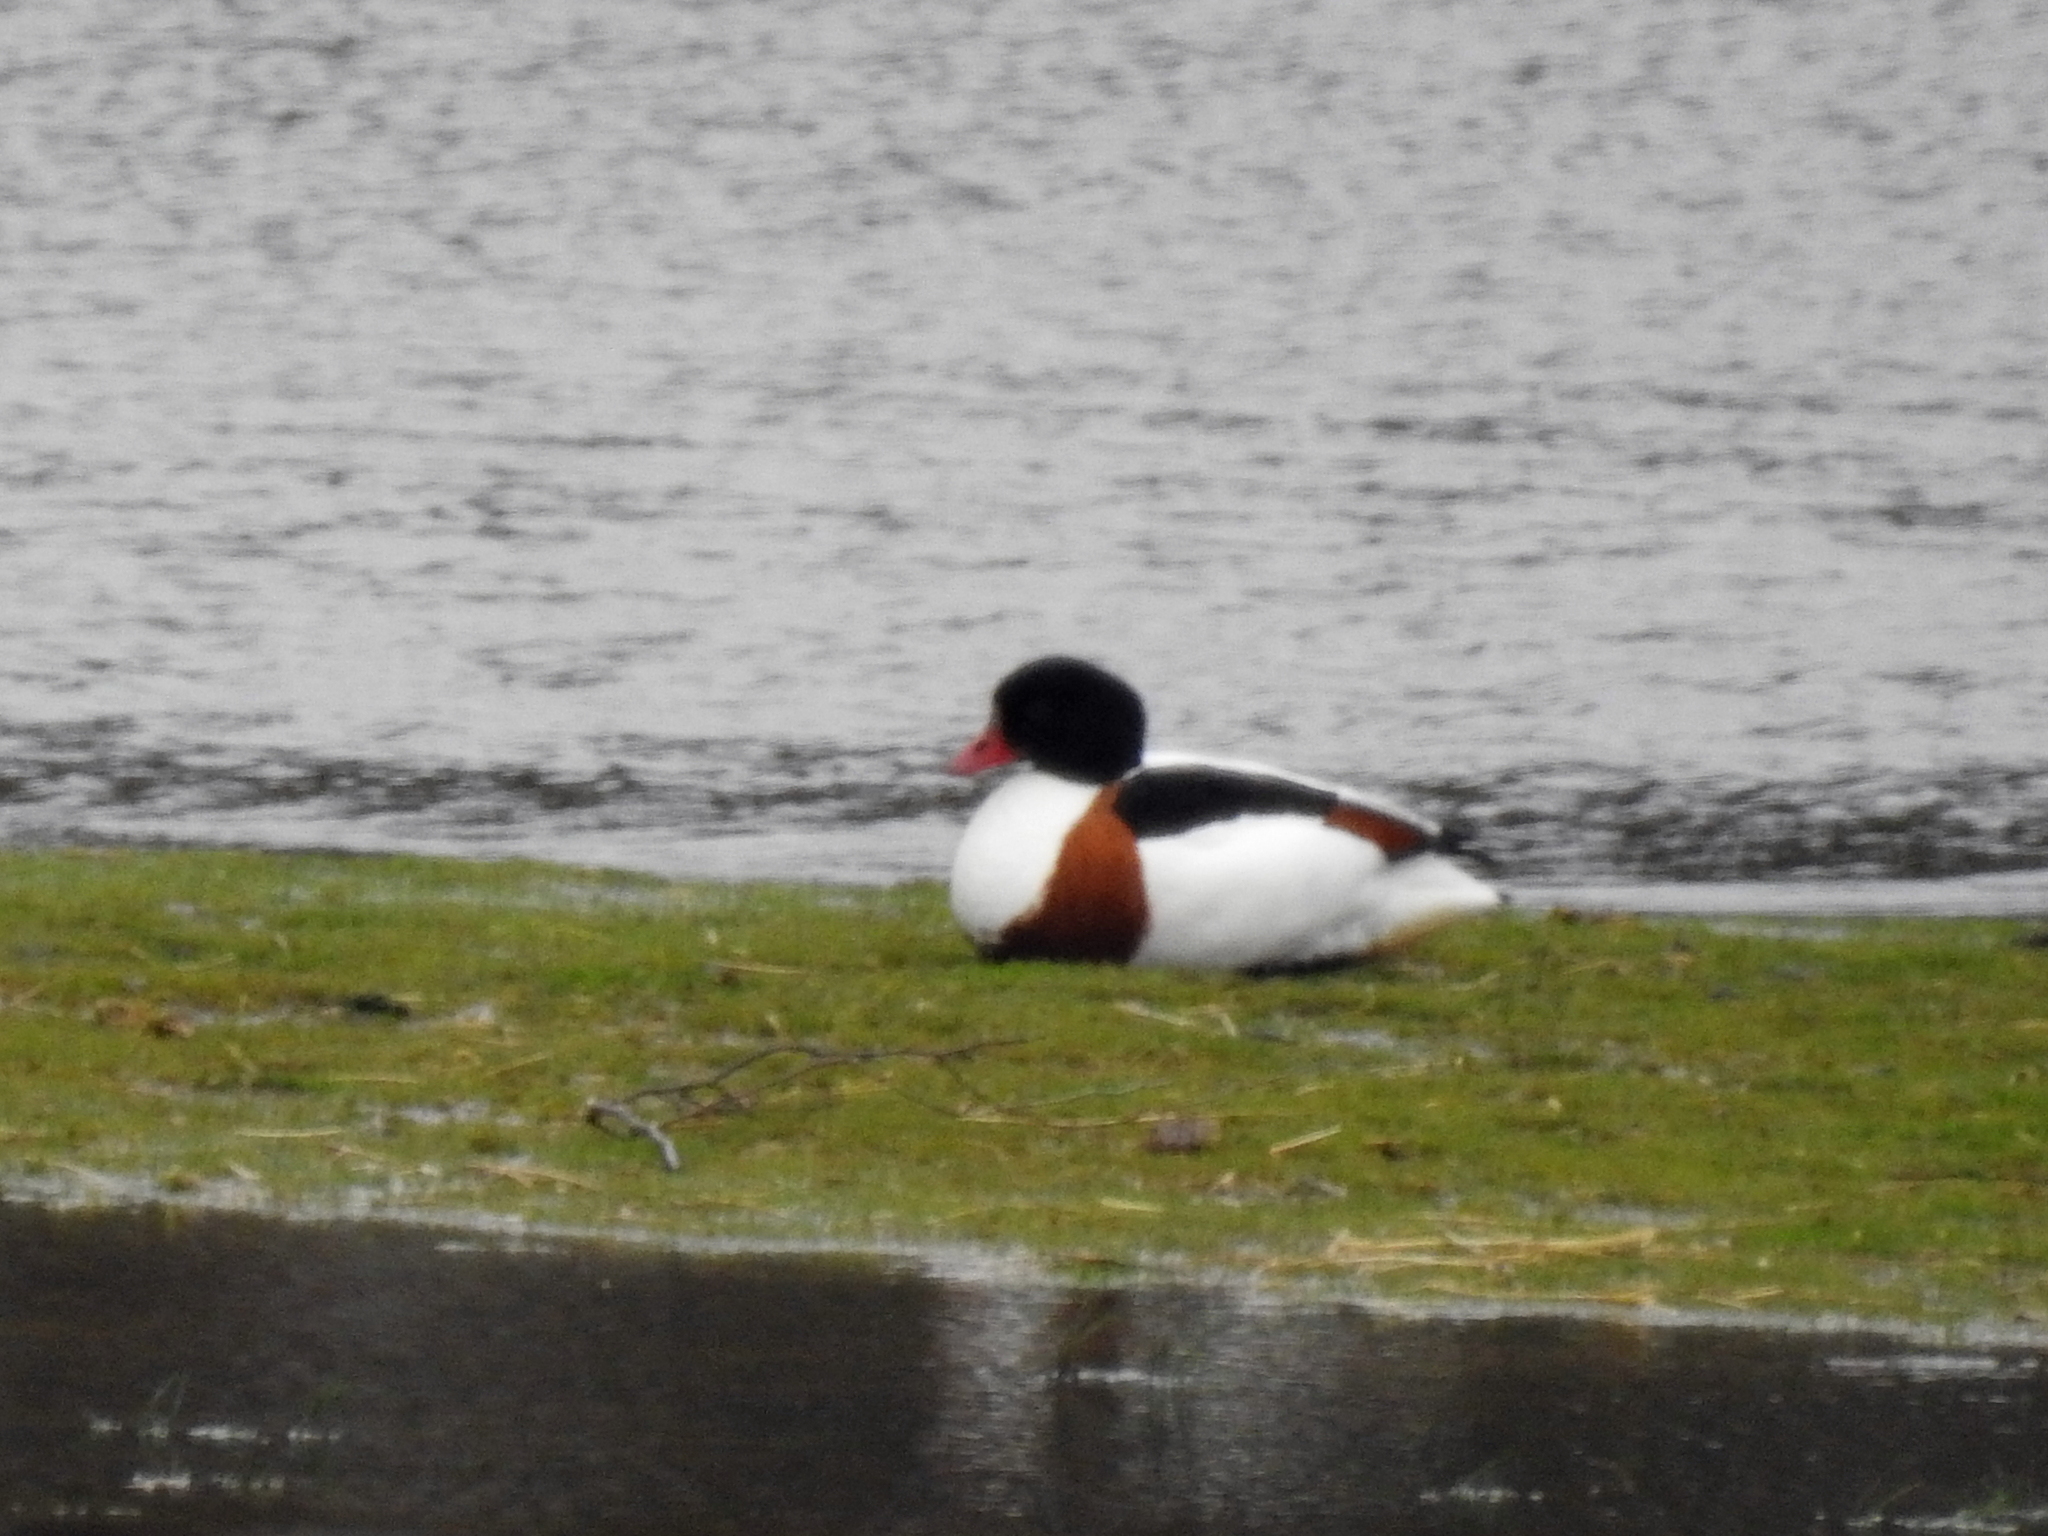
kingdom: Animalia
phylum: Chordata
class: Aves
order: Anseriformes
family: Anatidae
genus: Tadorna
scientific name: Tadorna tadorna
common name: Common shelduck
